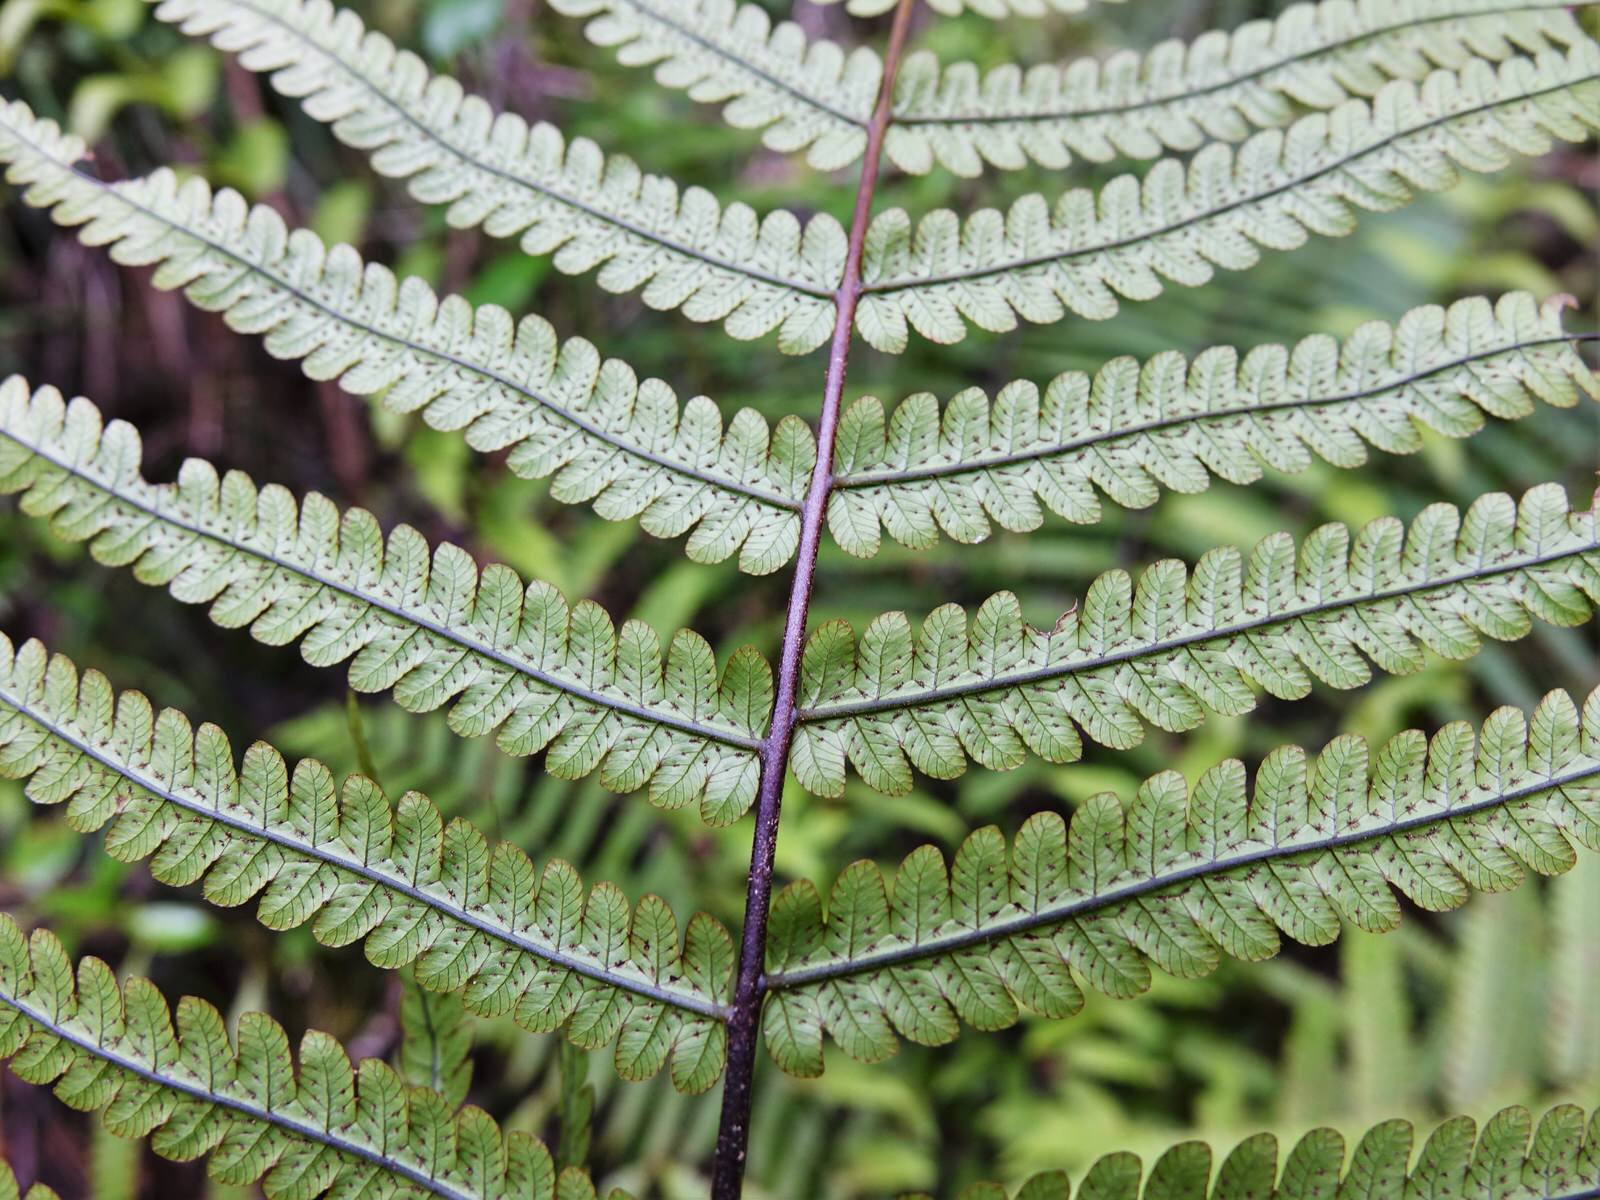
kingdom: Plantae
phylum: Tracheophyta
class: Polypodiopsida
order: Polypodiales
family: Thelypteridaceae
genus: Pakau
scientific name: Pakau pennigera
